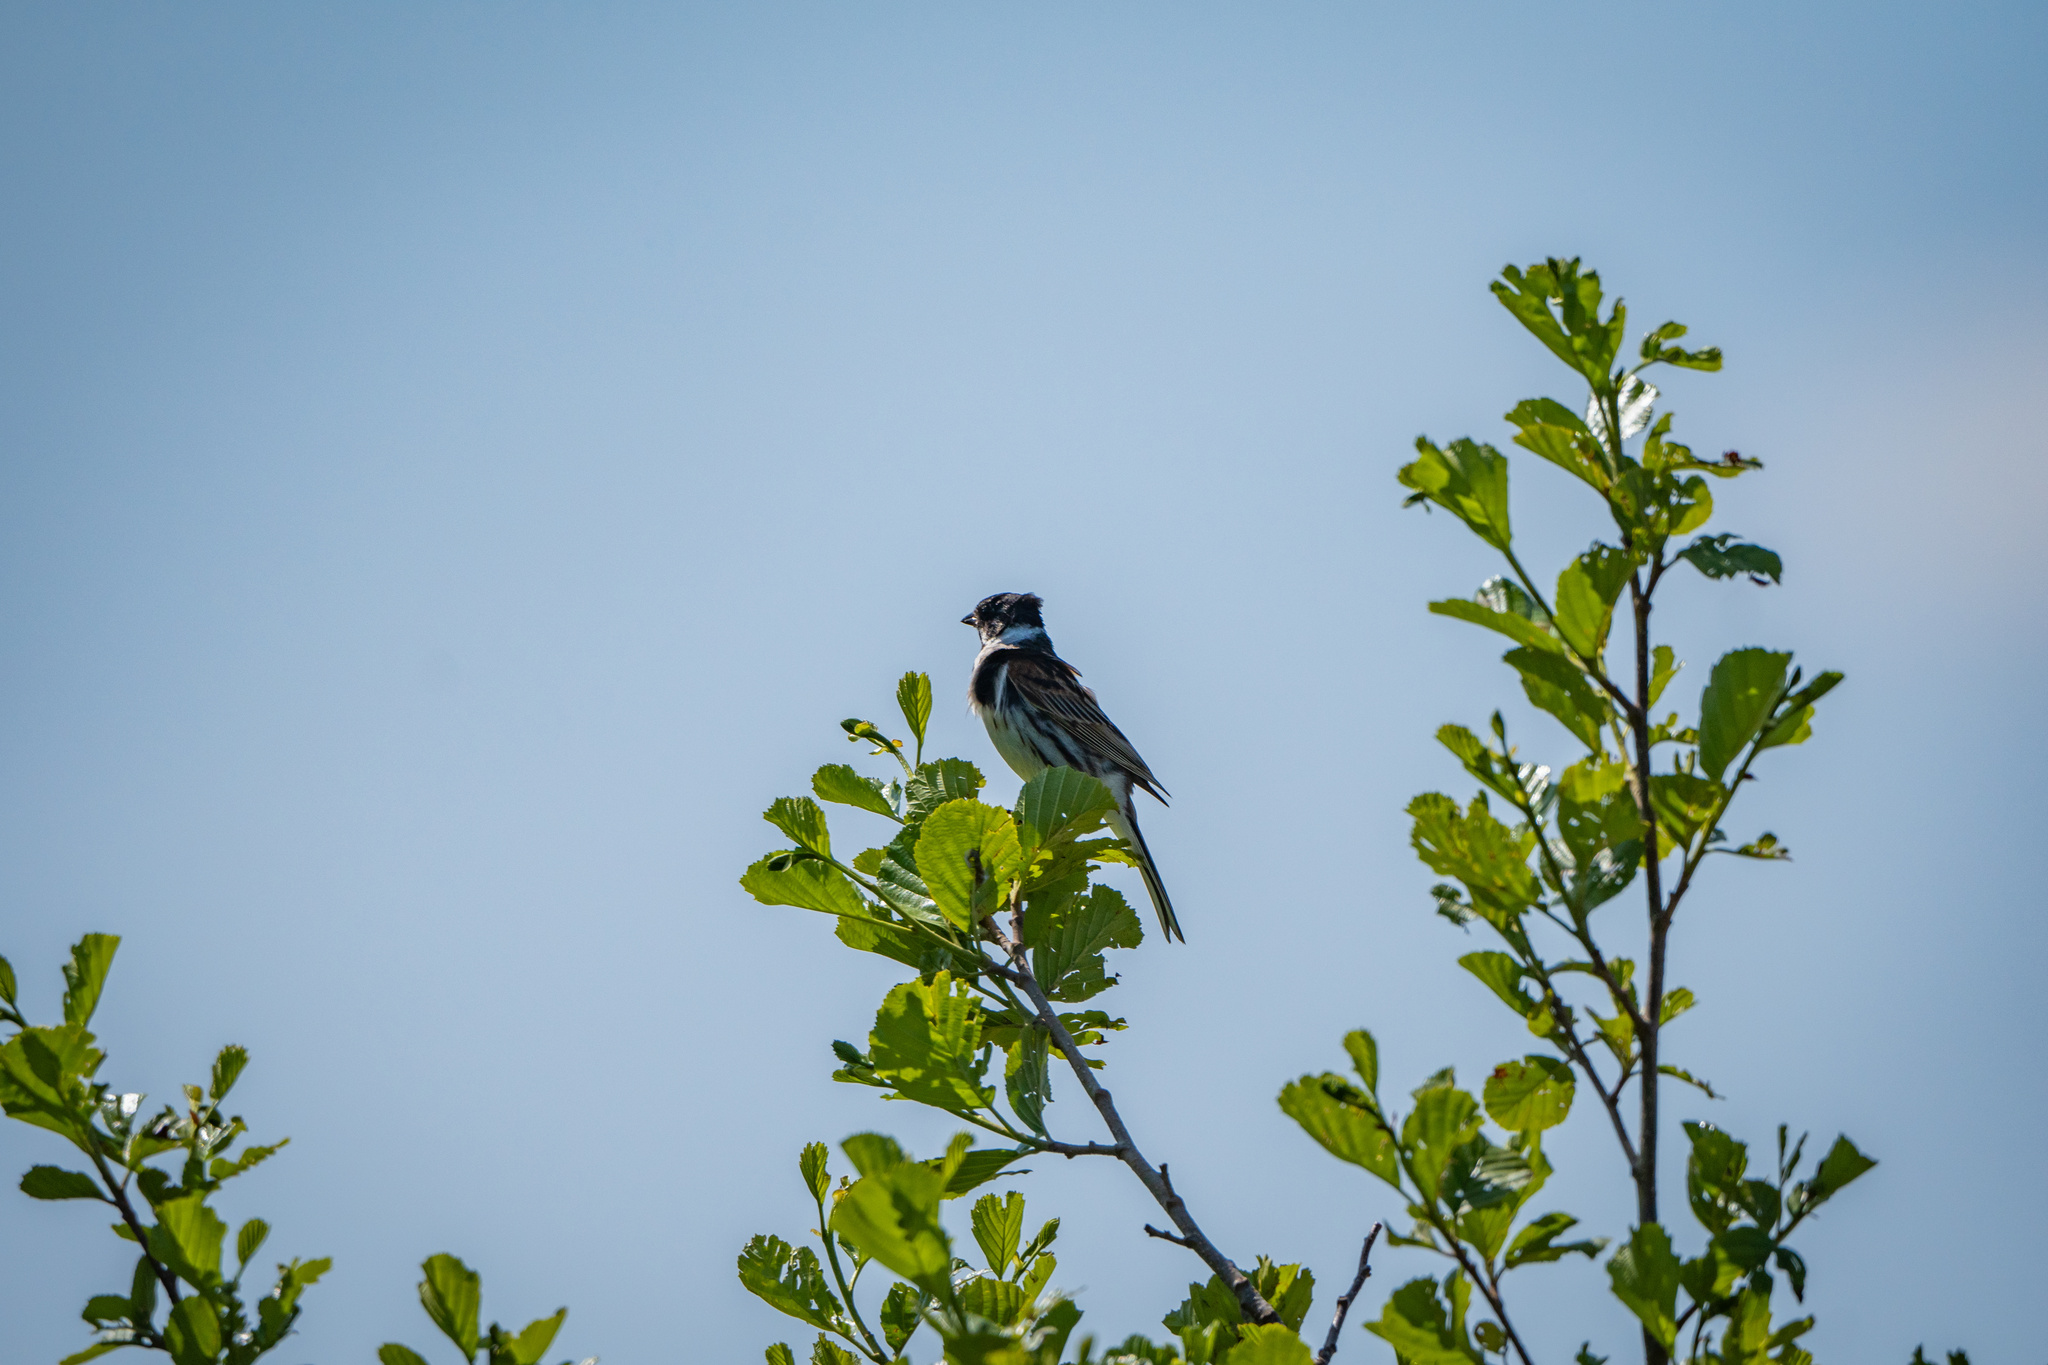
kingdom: Animalia
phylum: Chordata
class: Aves
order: Passeriformes
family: Emberizidae
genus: Emberiza
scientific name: Emberiza schoeniclus
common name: Reed bunting
